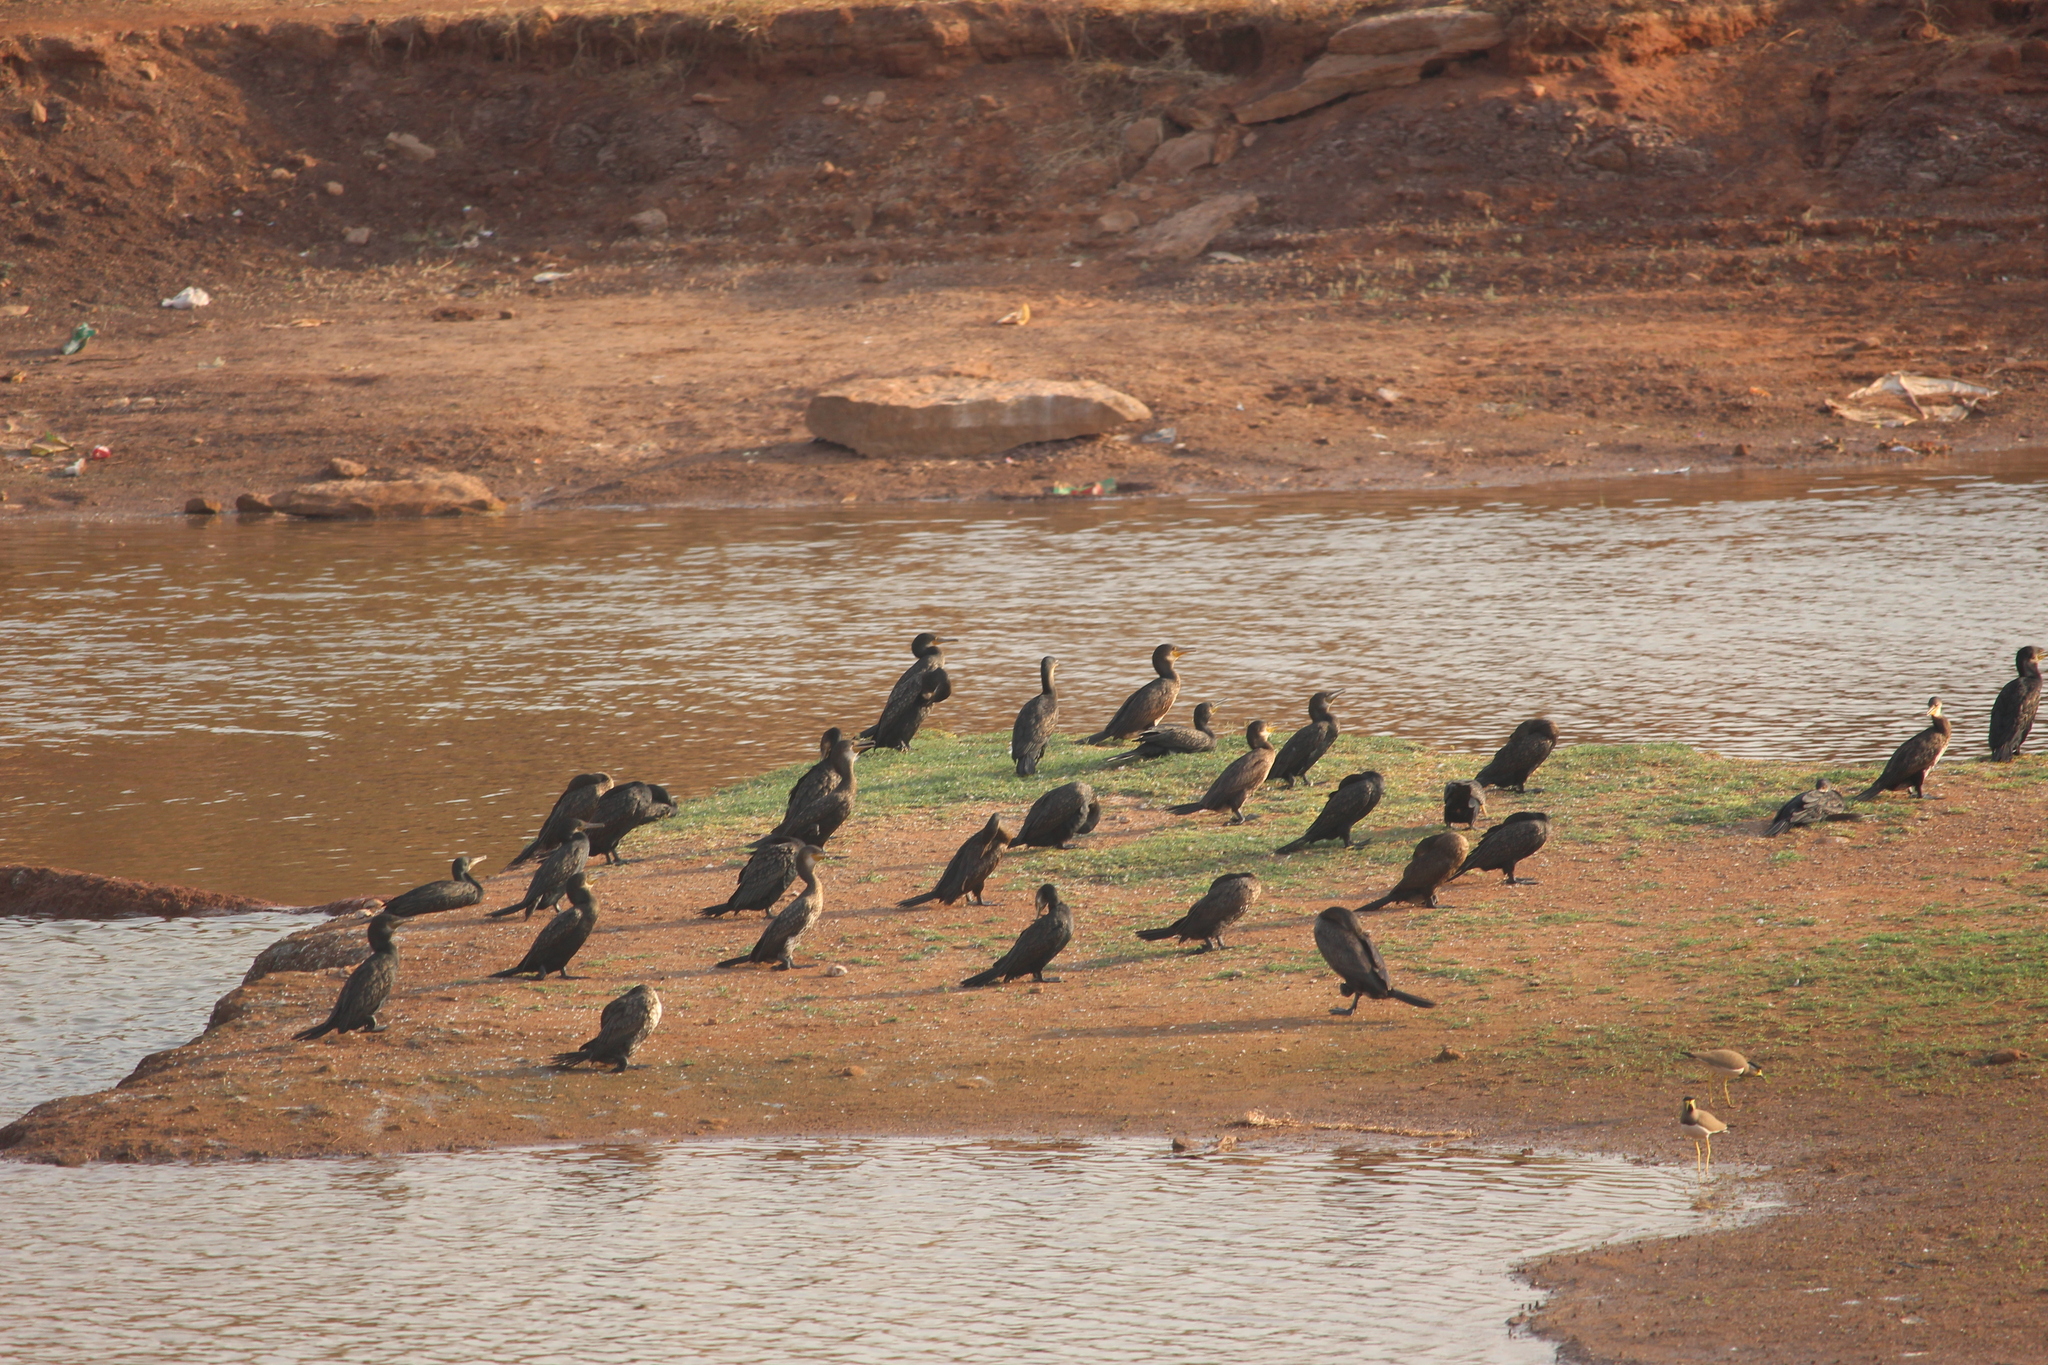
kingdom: Animalia
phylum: Chordata
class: Aves
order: Suliformes
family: Phalacrocoracidae
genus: Phalacrocorax
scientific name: Phalacrocorax fuscicollis
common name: Indian cormorant
